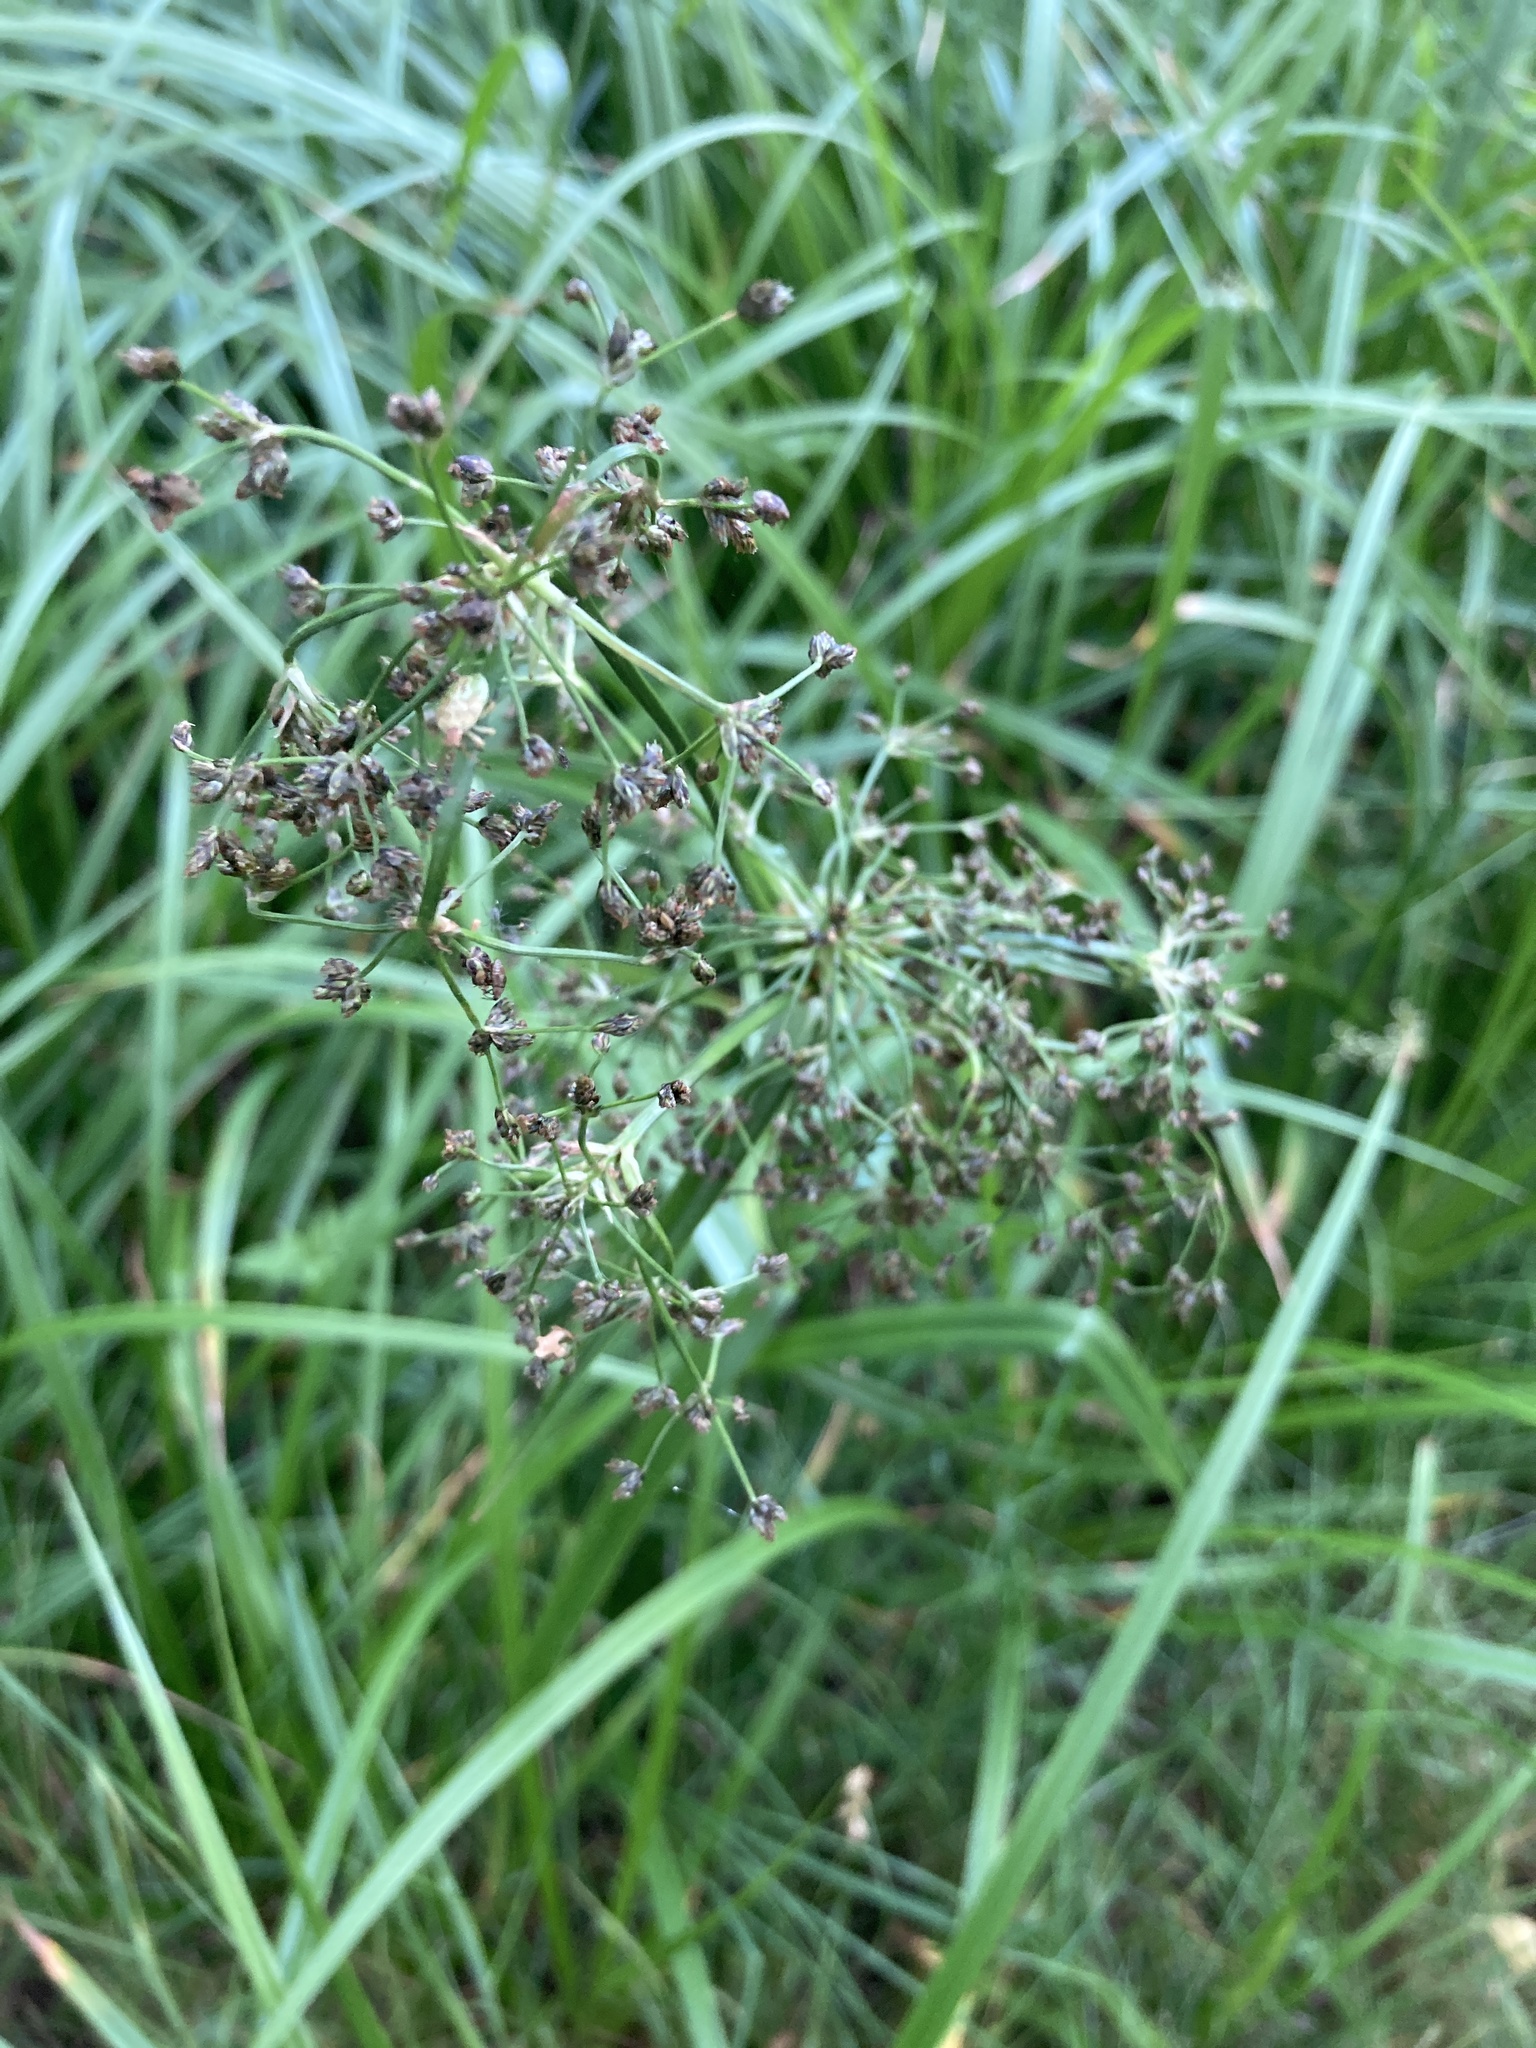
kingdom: Plantae
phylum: Tracheophyta
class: Liliopsida
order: Poales
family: Cyperaceae
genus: Scirpus
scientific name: Scirpus sylvaticus
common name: Wood club-rush
